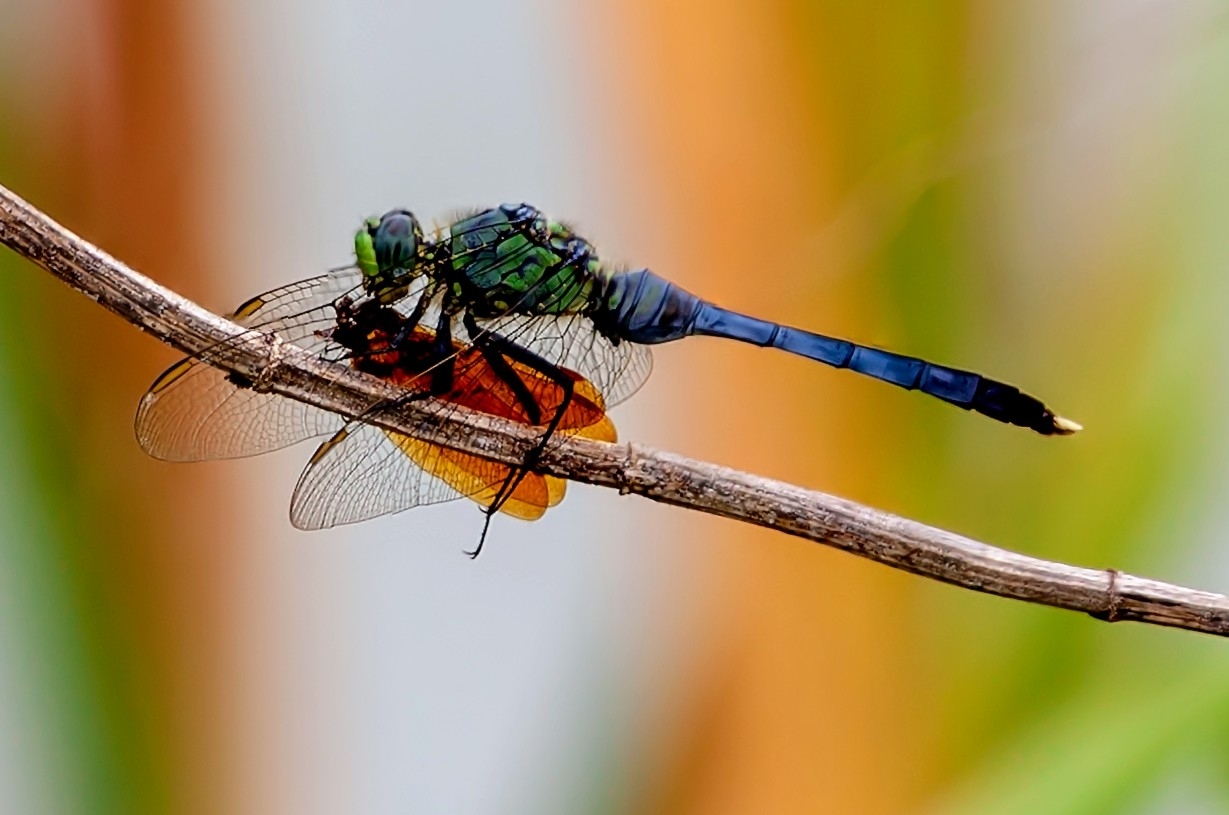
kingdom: Animalia
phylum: Arthropoda
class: Insecta
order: Odonata
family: Libellulidae
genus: Erythemis
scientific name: Erythemis simplicicollis
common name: Eastern pondhawk
